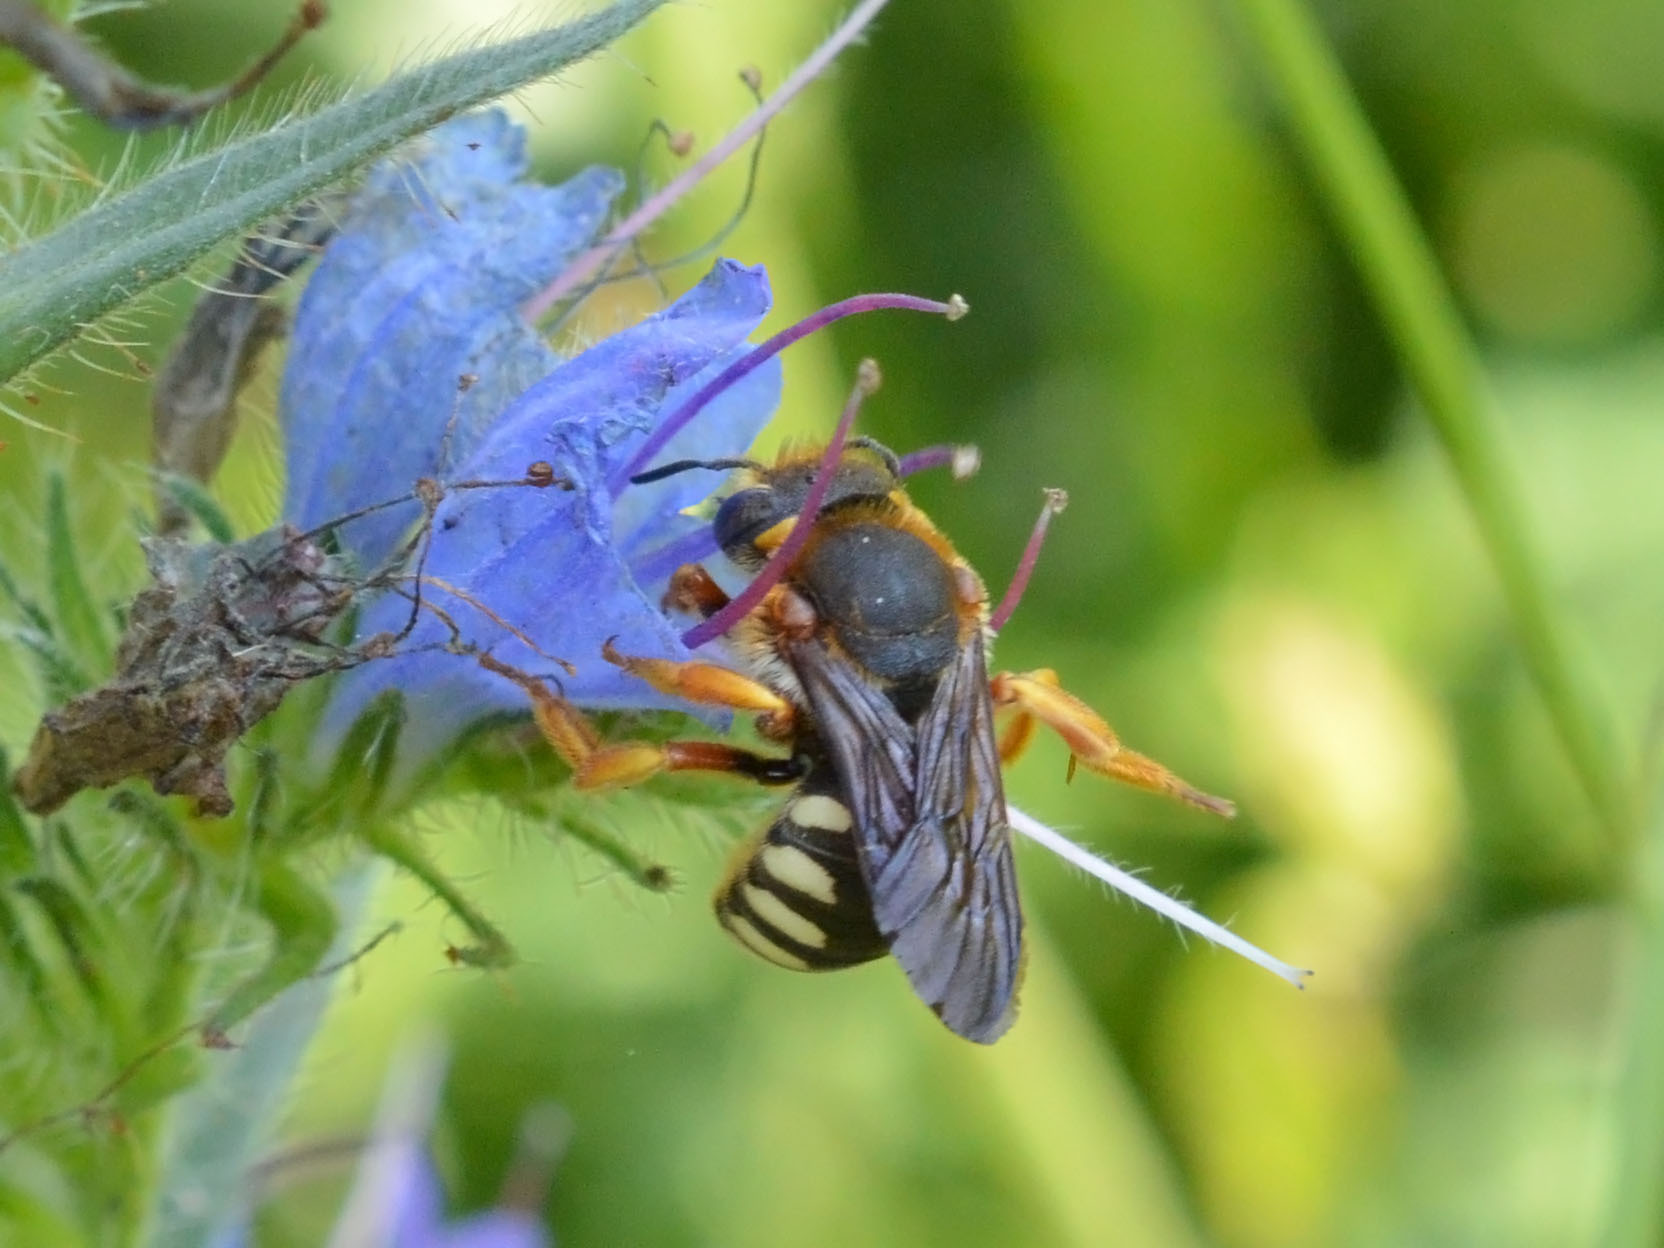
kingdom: Animalia
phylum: Arthropoda
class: Insecta
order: Hymenoptera
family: Megachilidae
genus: Rhodanthidium
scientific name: Rhodanthidium septemdentatum
